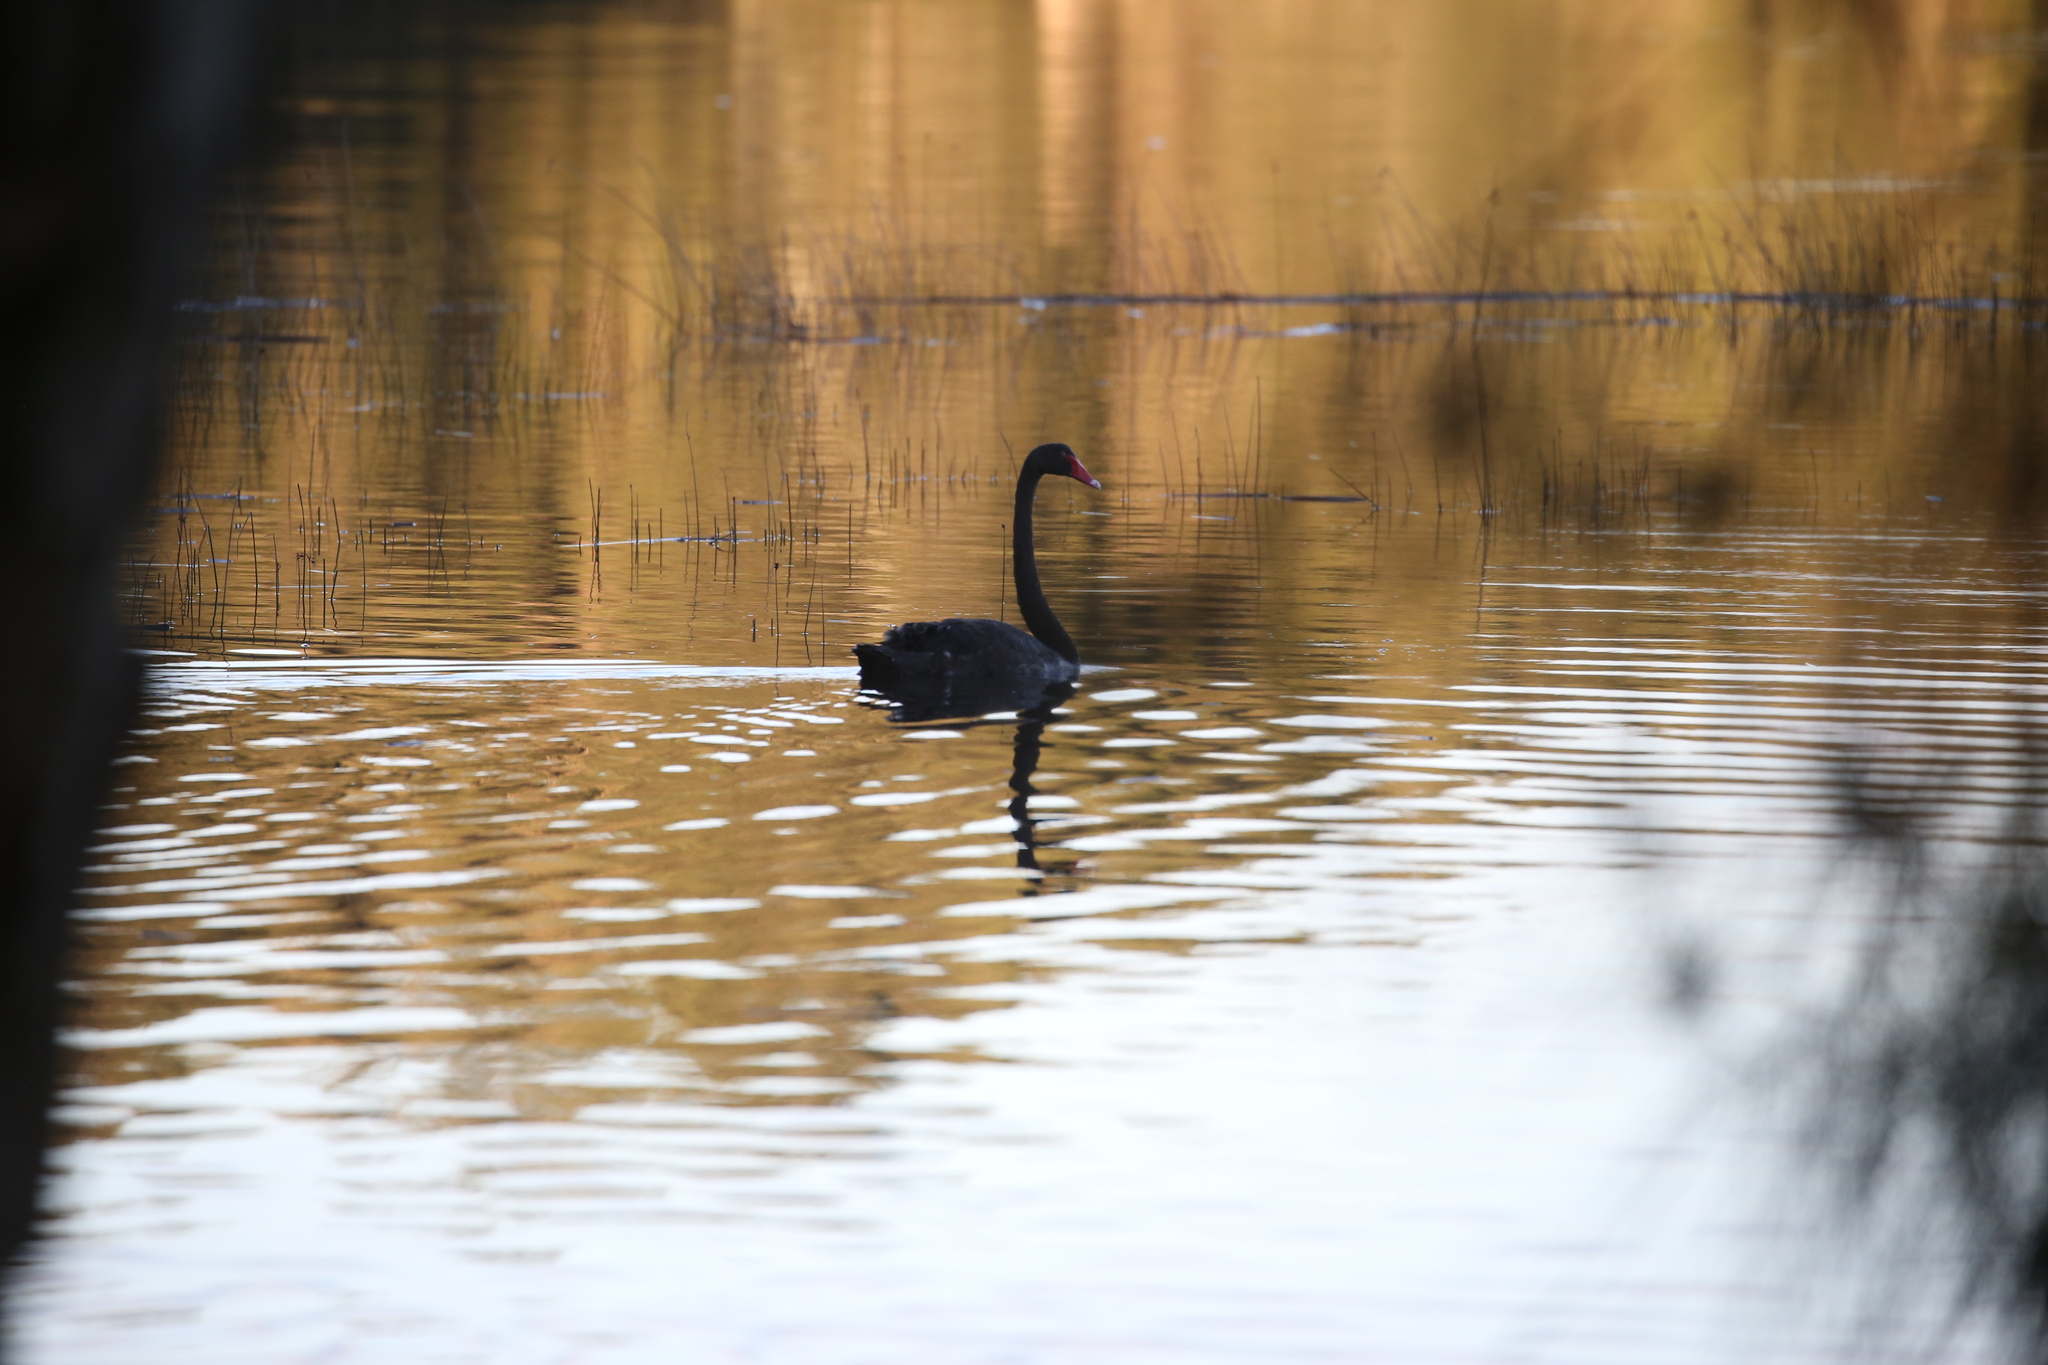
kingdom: Animalia
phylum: Chordata
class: Aves
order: Anseriformes
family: Anatidae
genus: Cygnus
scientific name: Cygnus atratus
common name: Black swan
